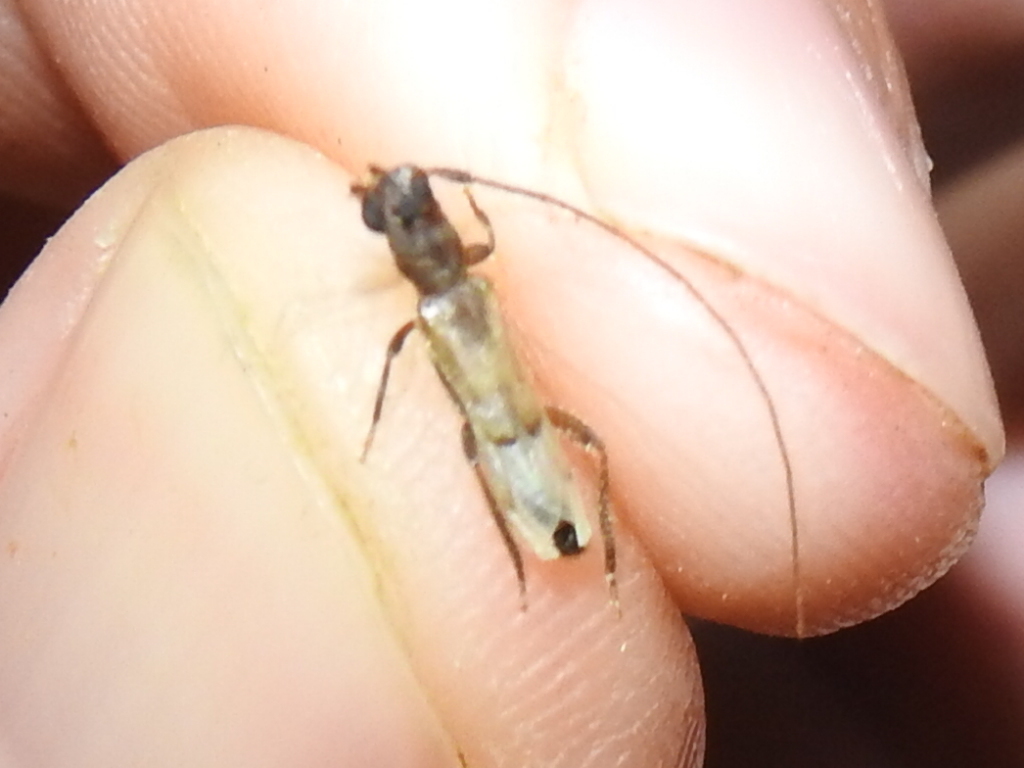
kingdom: Animalia
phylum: Arthropoda
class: Insecta
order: Coleoptera
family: Cerambycidae
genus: Methia
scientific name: Methia necydalea
